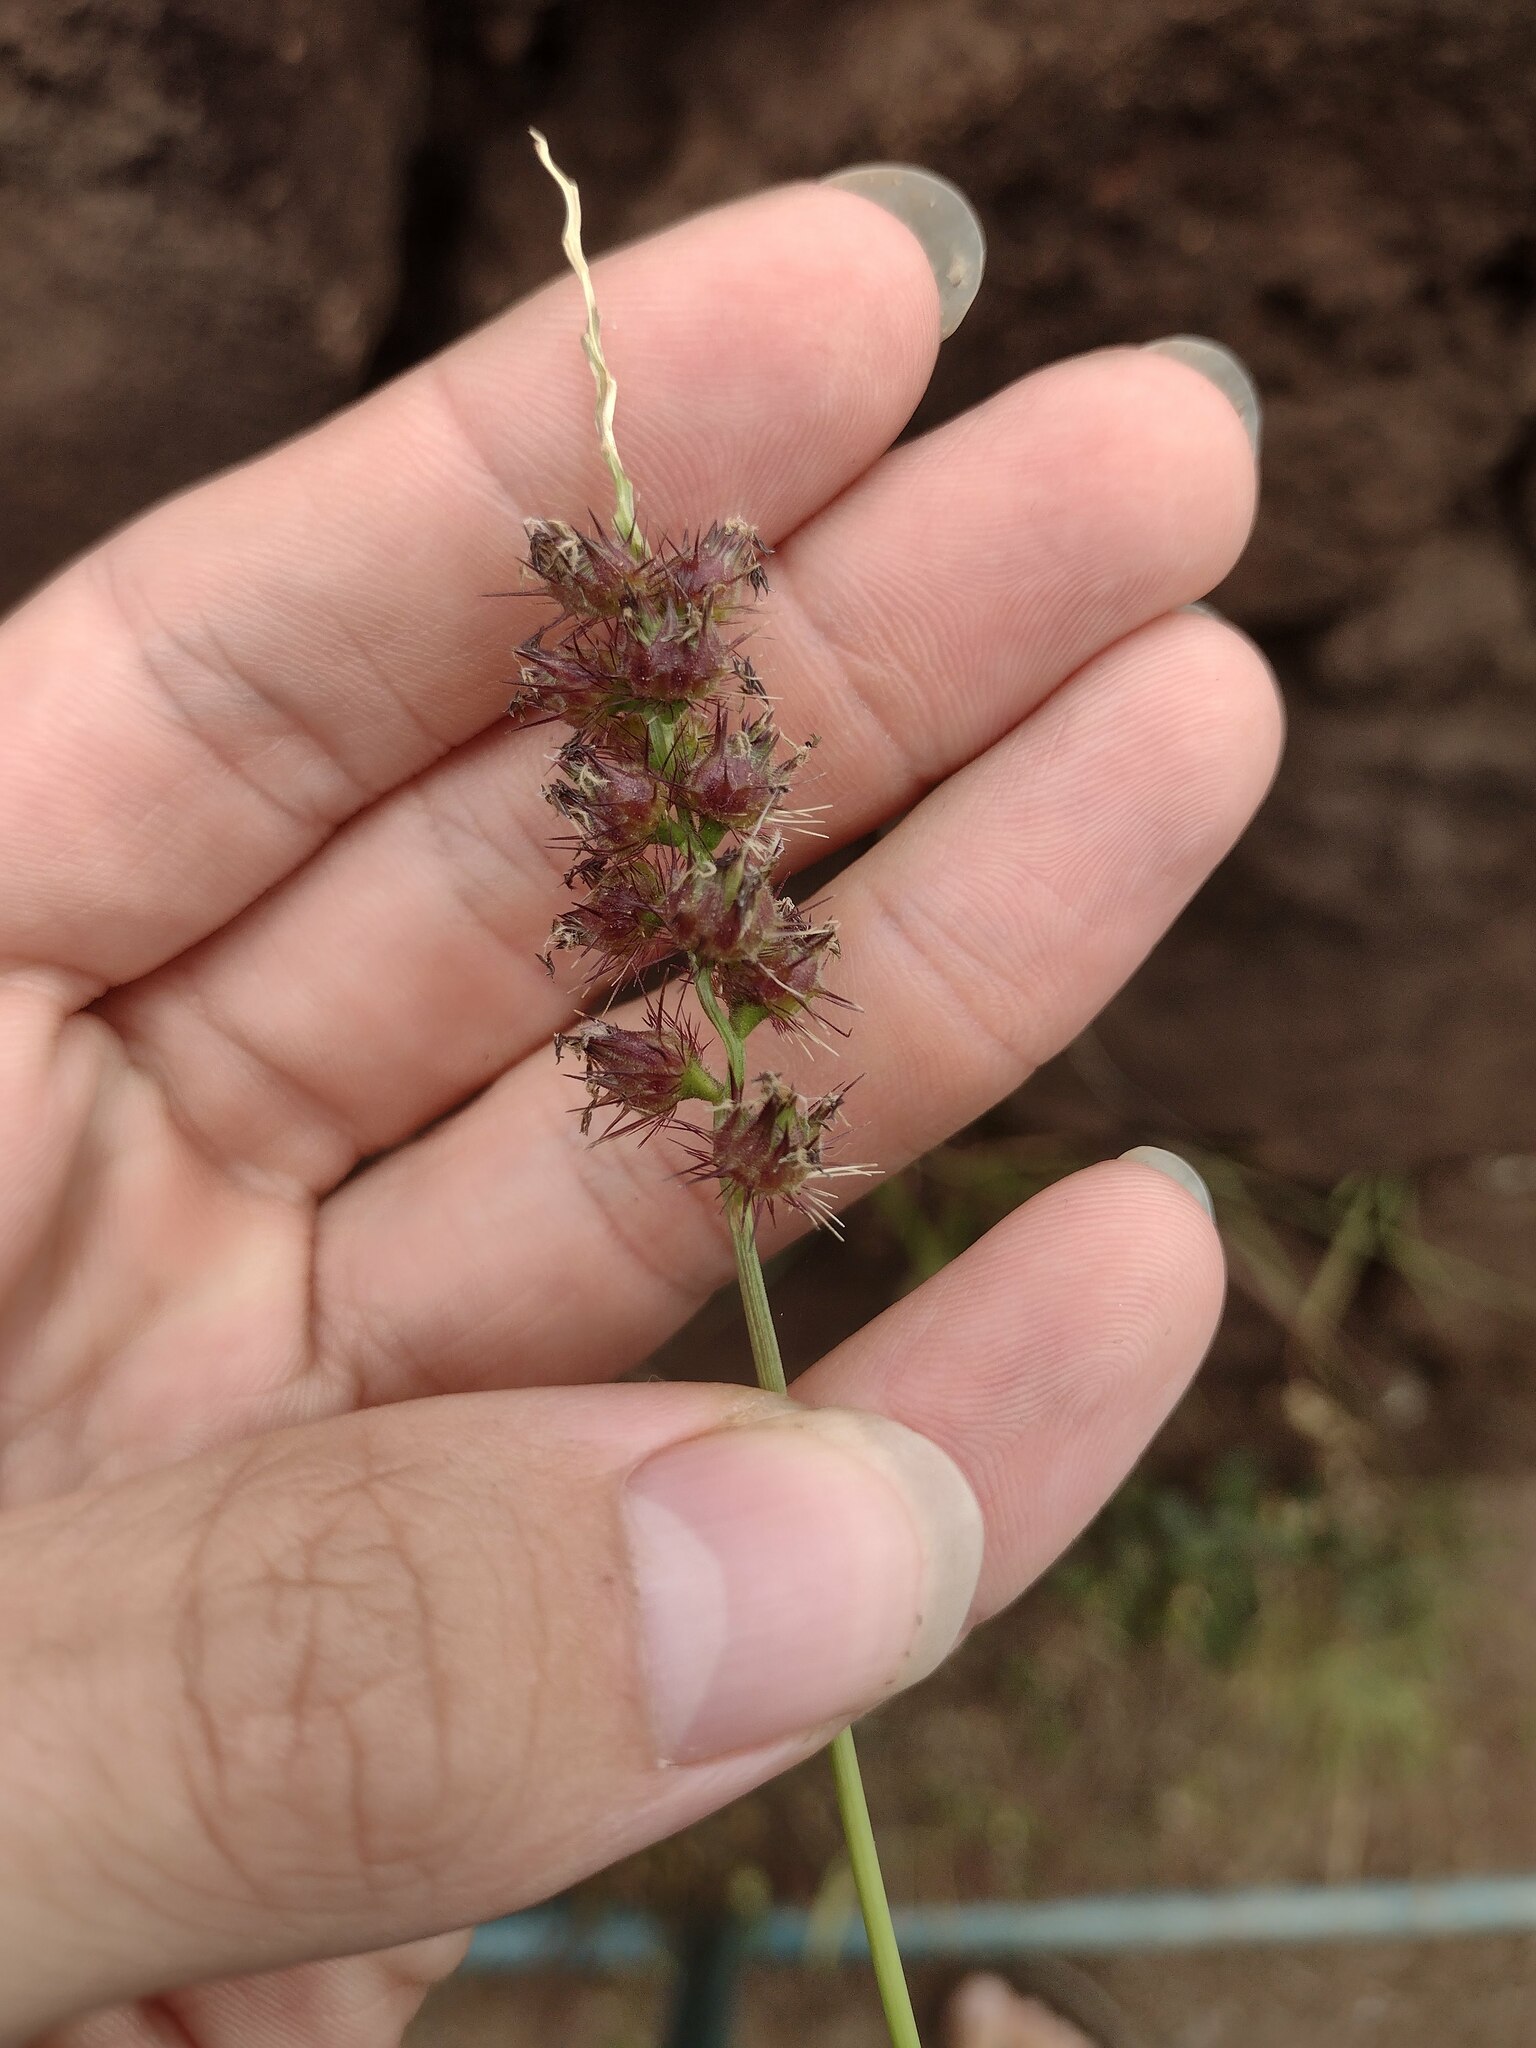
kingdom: Plantae
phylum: Tracheophyta
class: Liliopsida
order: Poales
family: Poaceae
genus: Cenchrus
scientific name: Cenchrus echinatus
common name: Southern sandbur
